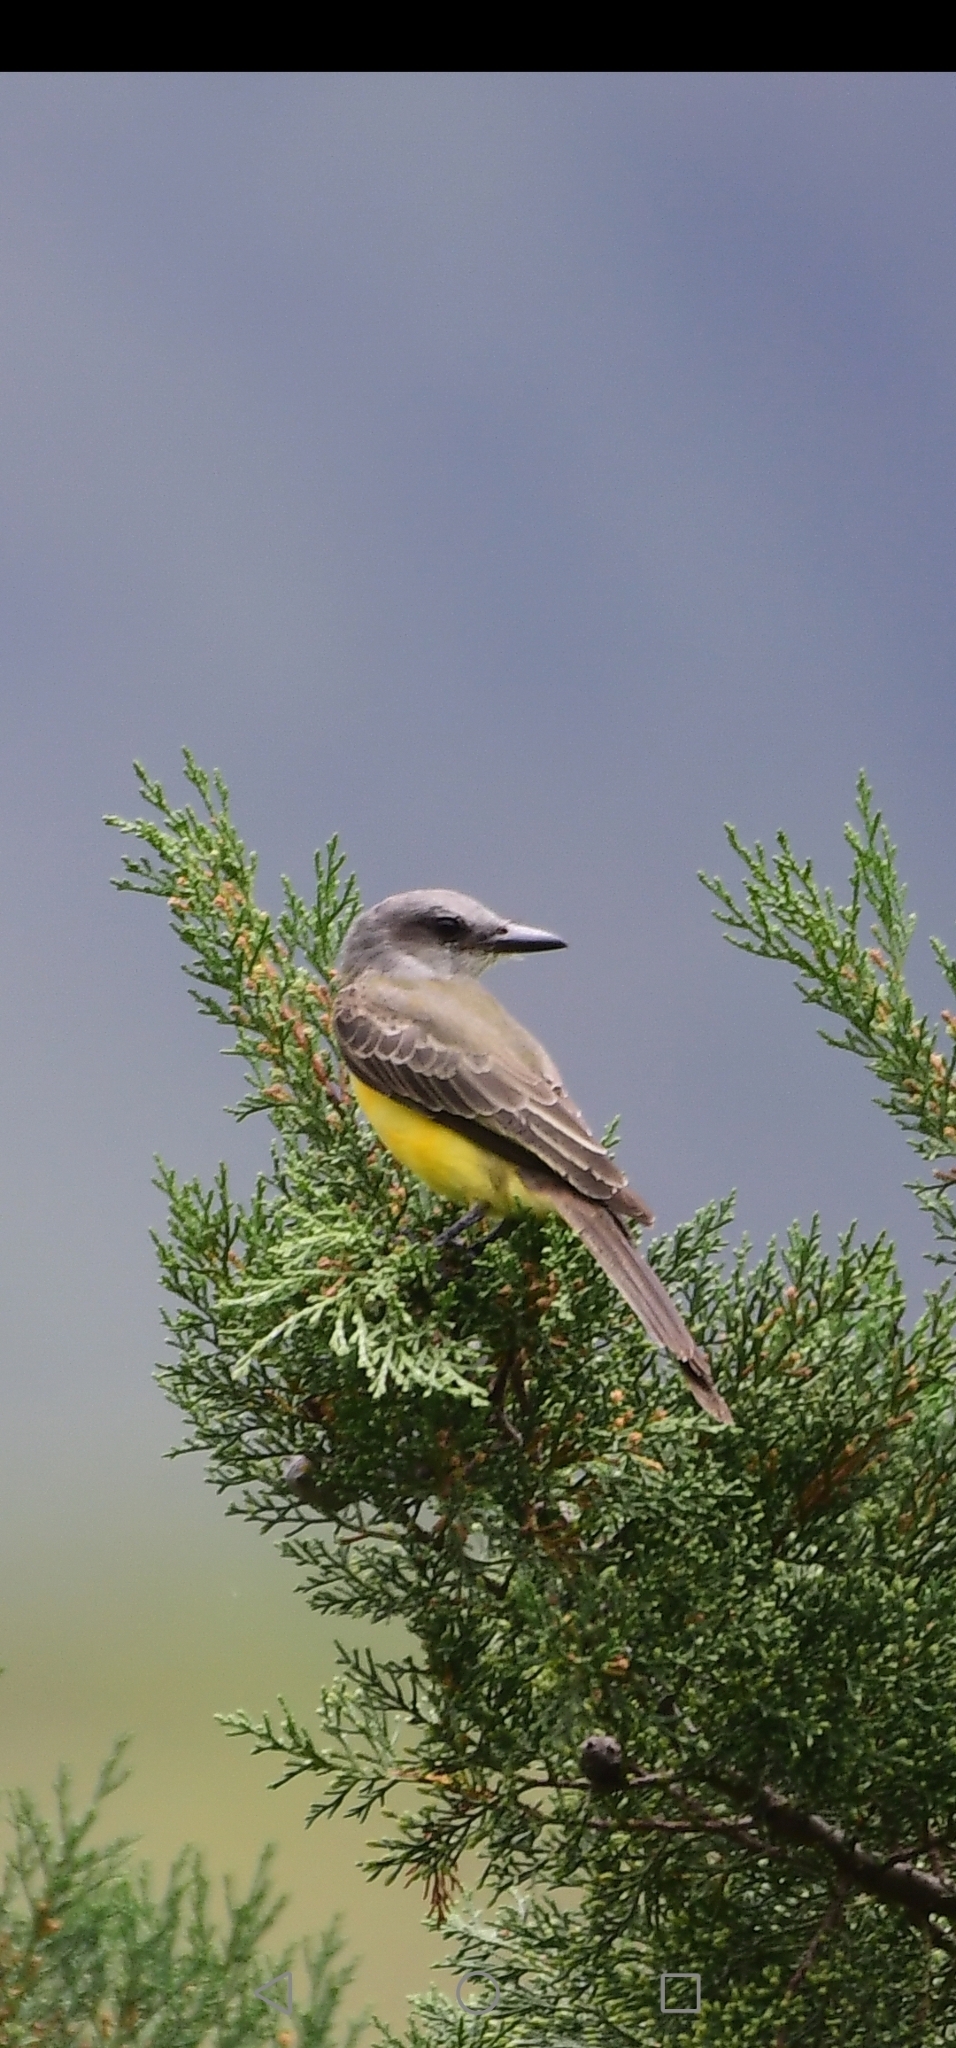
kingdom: Animalia
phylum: Chordata
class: Aves
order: Passeriformes
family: Tyrannidae
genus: Tyrannus
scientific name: Tyrannus melancholicus
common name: Tropical kingbird
